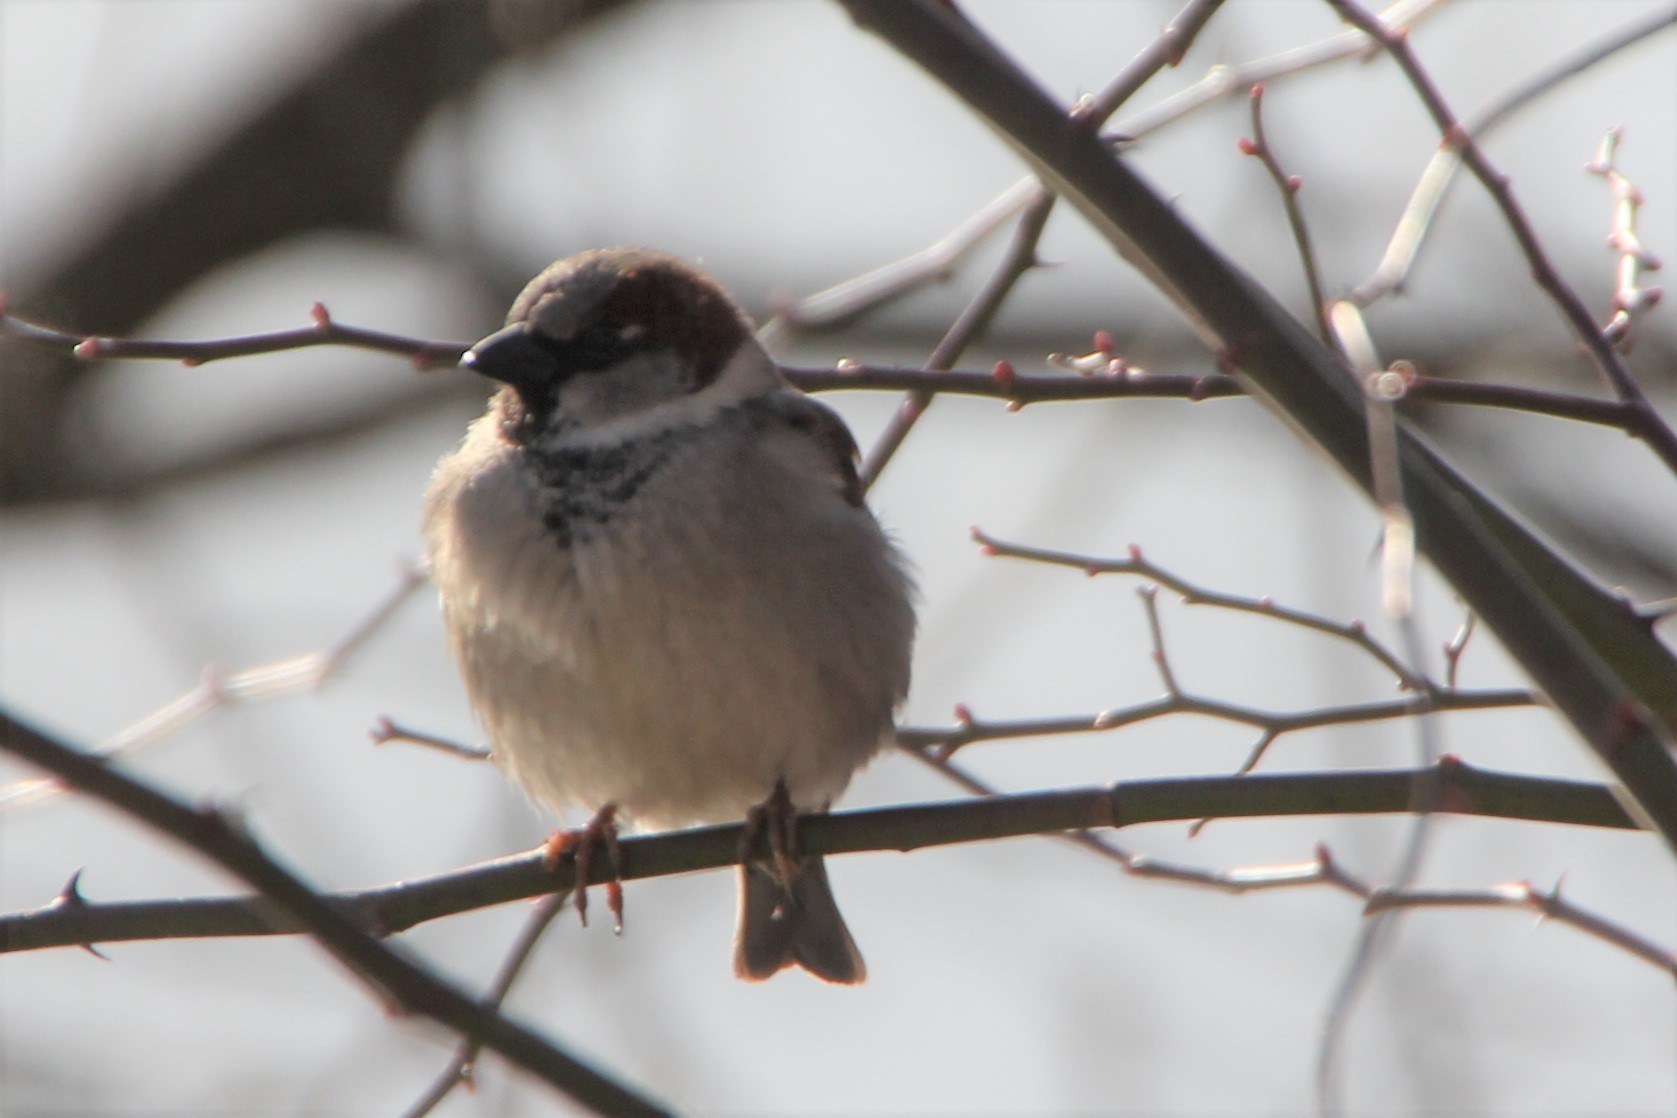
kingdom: Animalia
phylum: Chordata
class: Aves
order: Passeriformes
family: Passeridae
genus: Passer
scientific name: Passer domesticus
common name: House sparrow
